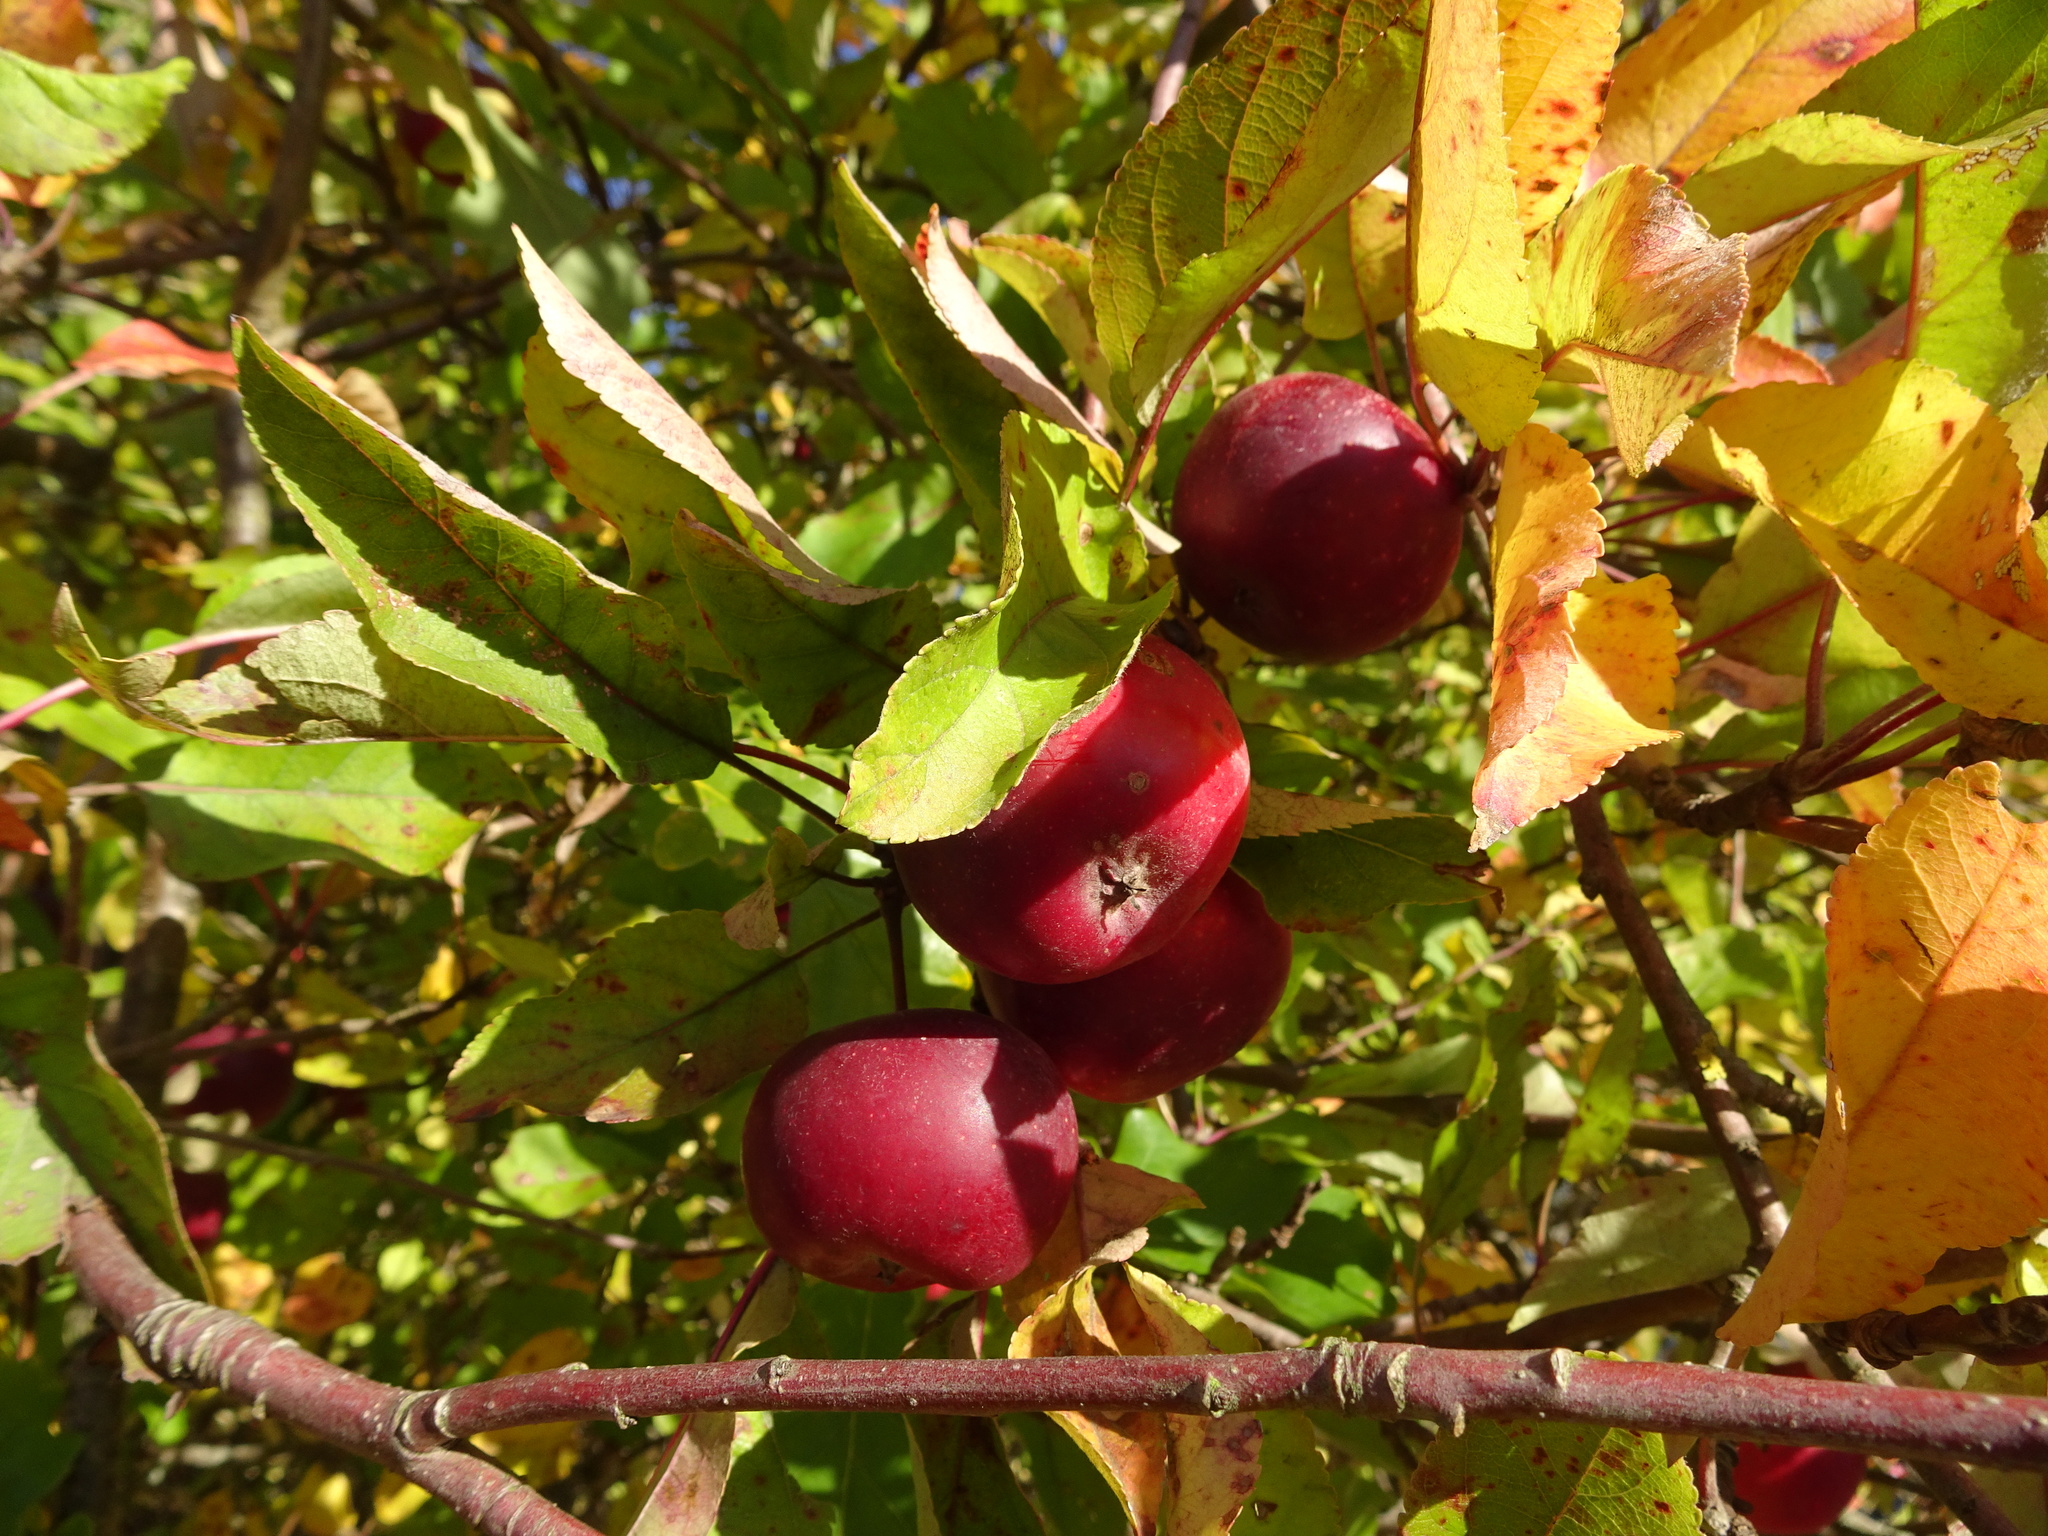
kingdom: Plantae
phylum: Tracheophyta
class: Magnoliopsida
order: Rosales
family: Rosaceae
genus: Malus
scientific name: Malus domestica
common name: Apple
